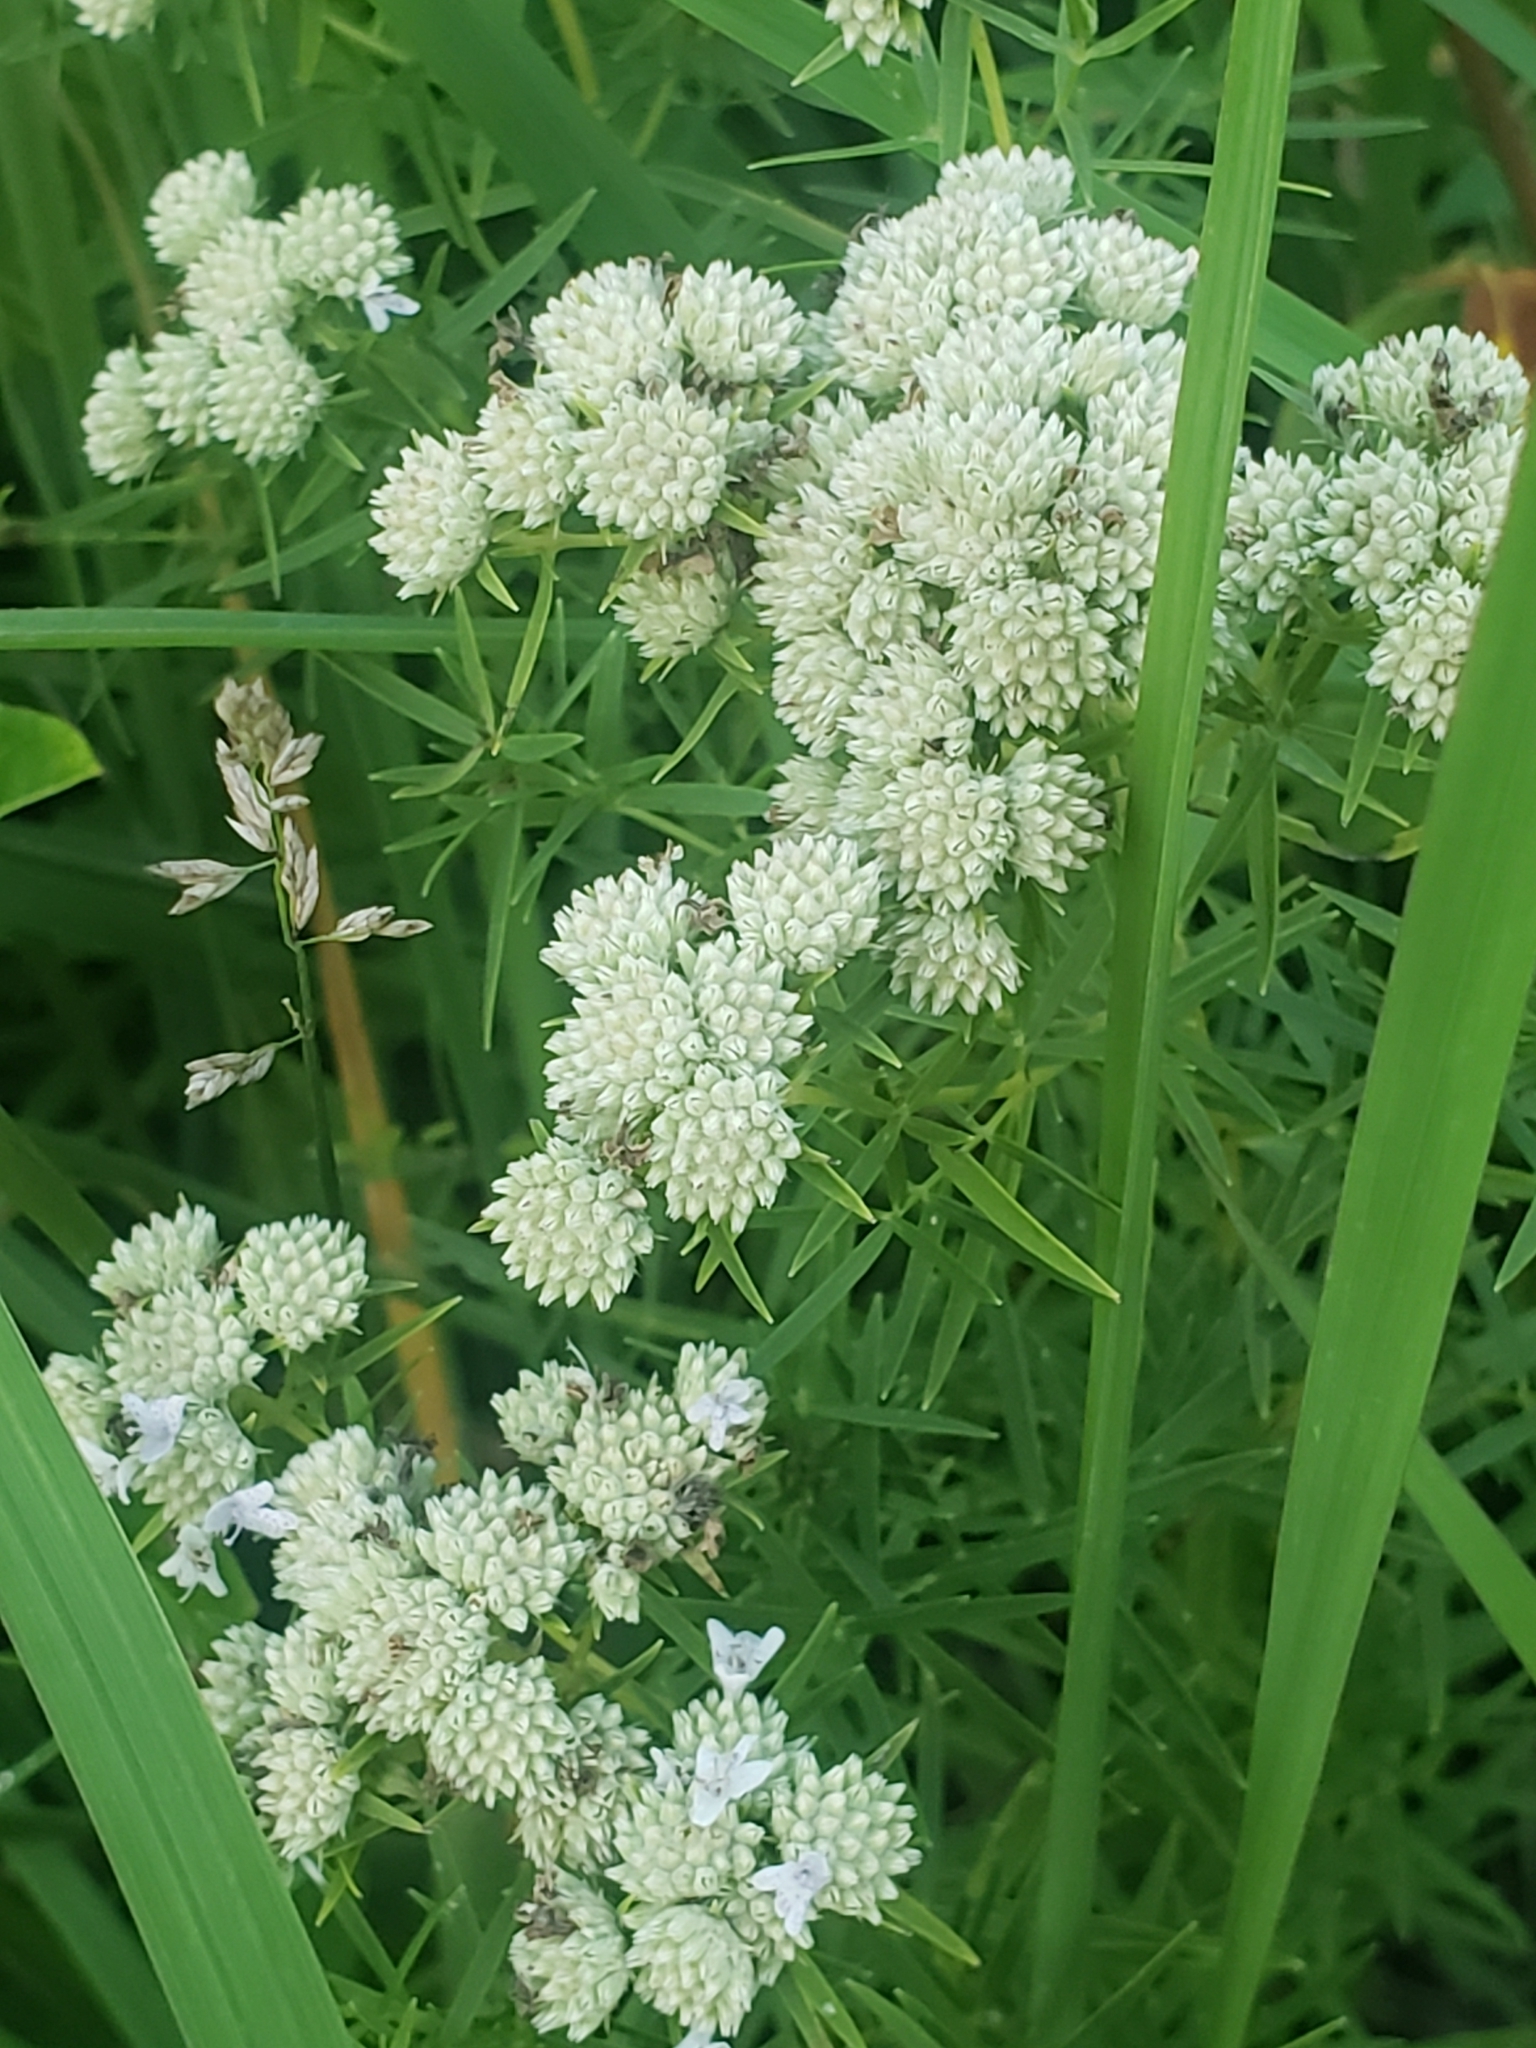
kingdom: Plantae
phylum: Tracheophyta
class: Magnoliopsida
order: Lamiales
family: Lamiaceae
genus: Pycnanthemum
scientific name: Pycnanthemum tenuifolium
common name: Narrow-leaf mountain-mint
